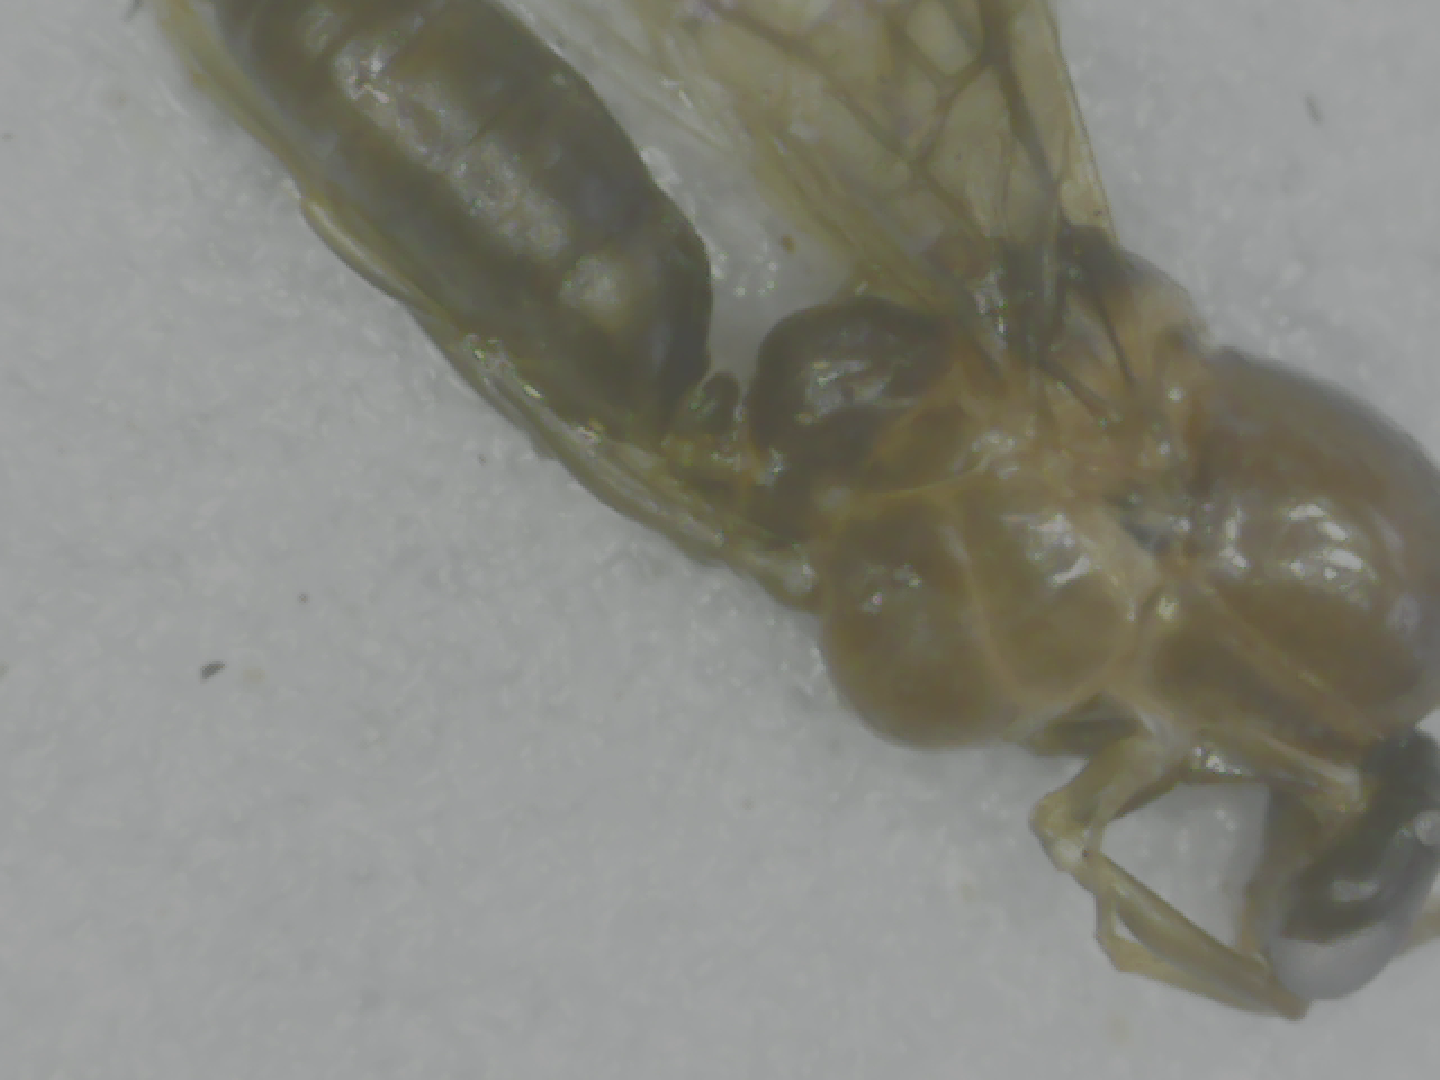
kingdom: Animalia
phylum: Arthropoda
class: Insecta
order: Hymenoptera
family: Formicidae
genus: Linepithema
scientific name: Linepithema humile
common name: Argentine ant
